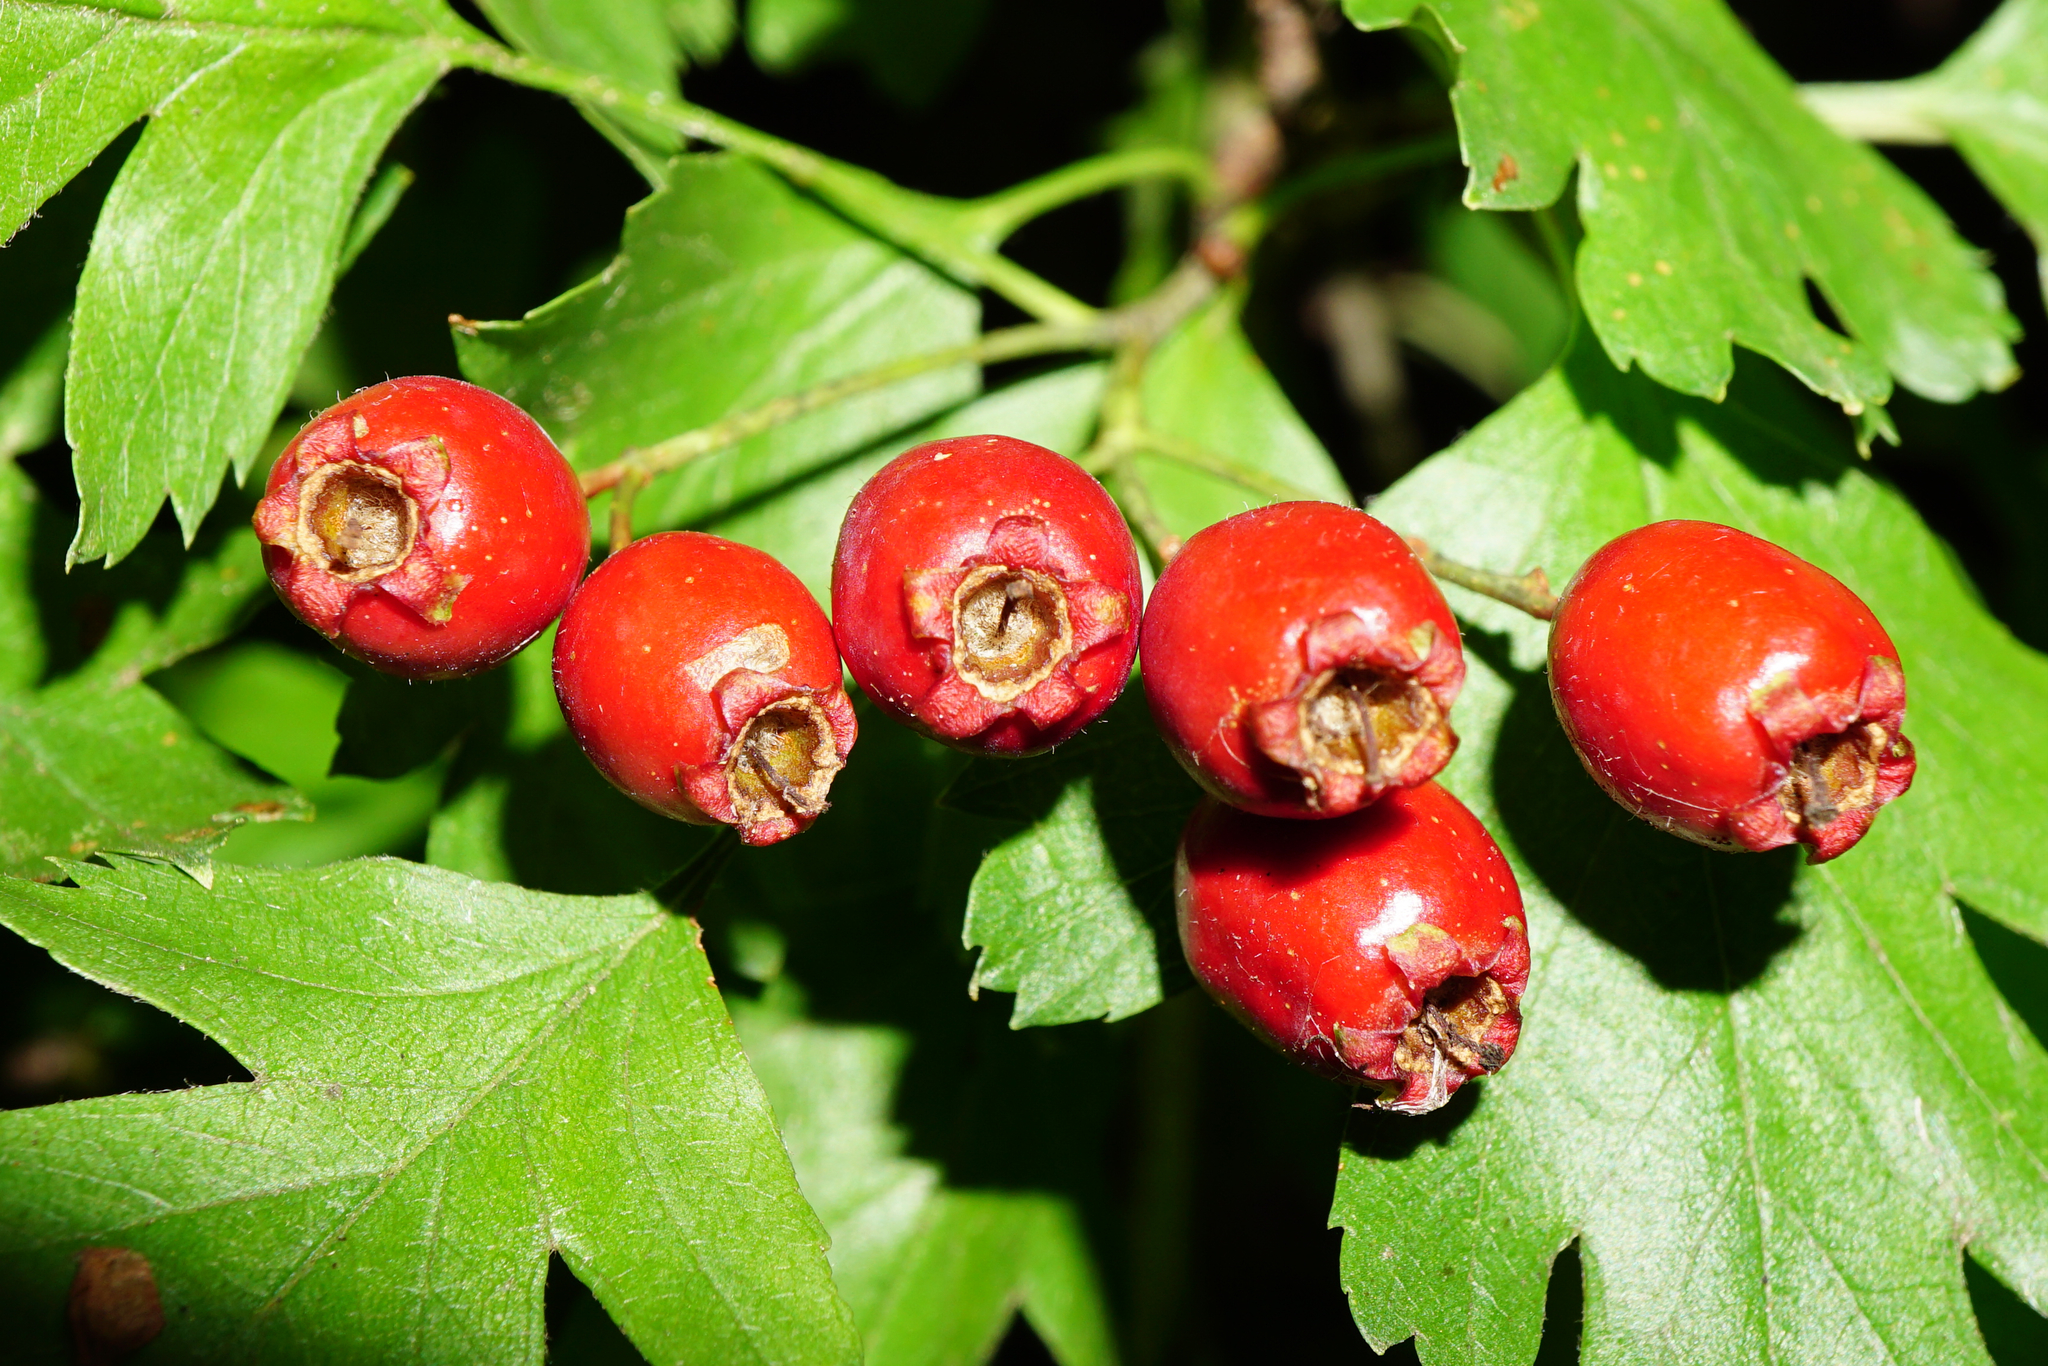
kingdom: Plantae
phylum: Tracheophyta
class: Magnoliopsida
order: Rosales
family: Rosaceae
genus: Crataegus
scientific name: Crataegus monogyna
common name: Hawthorn
